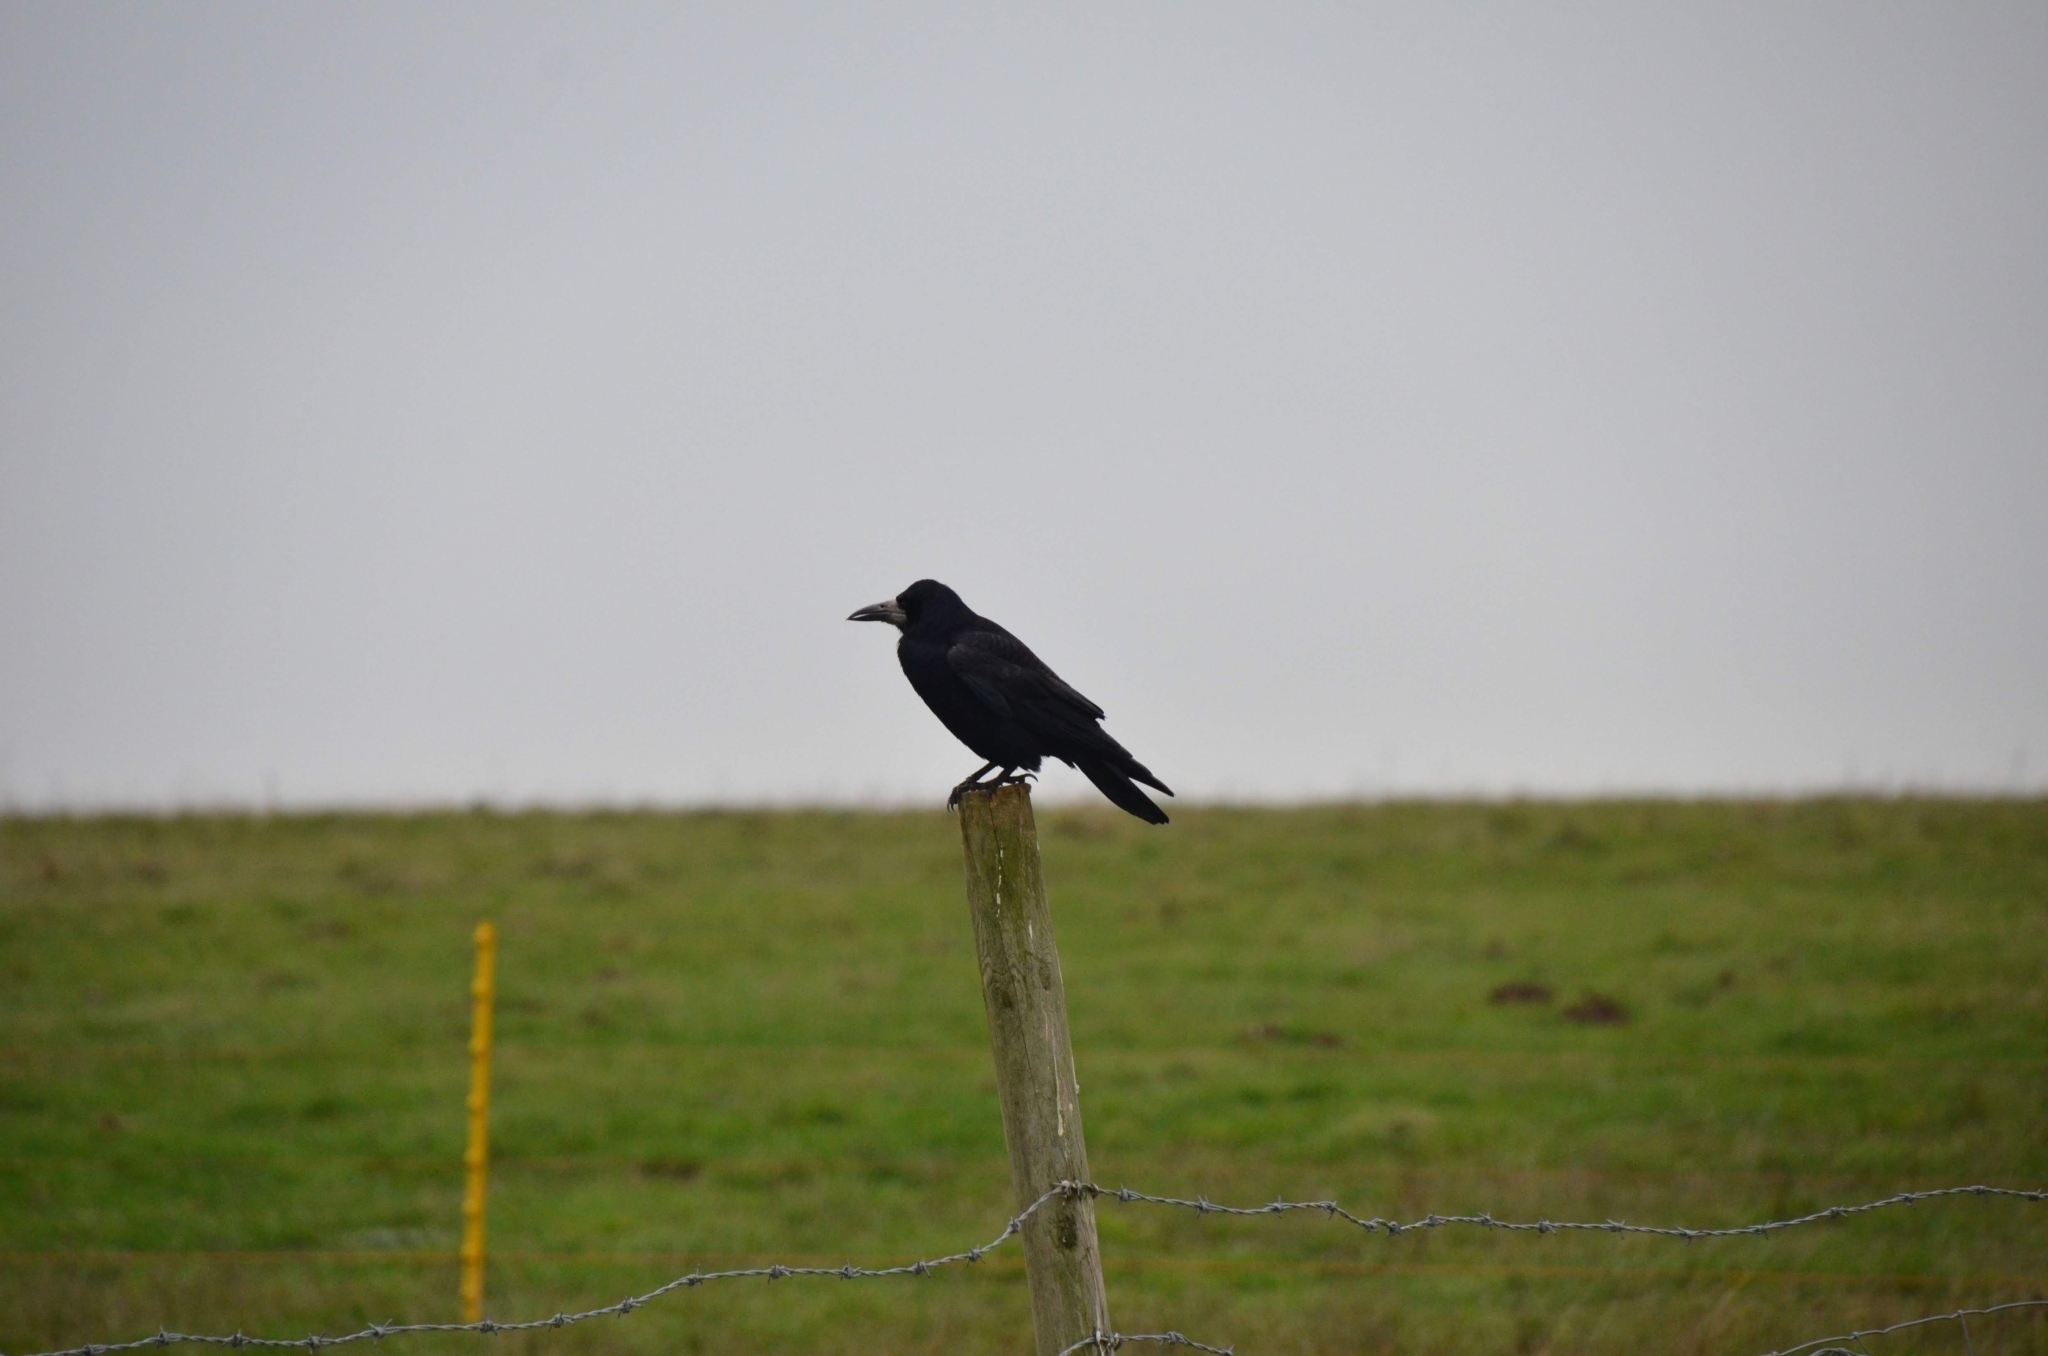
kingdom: Animalia
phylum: Chordata
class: Aves
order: Passeriformes
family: Corvidae
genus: Corvus
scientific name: Corvus frugilegus
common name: Rook
